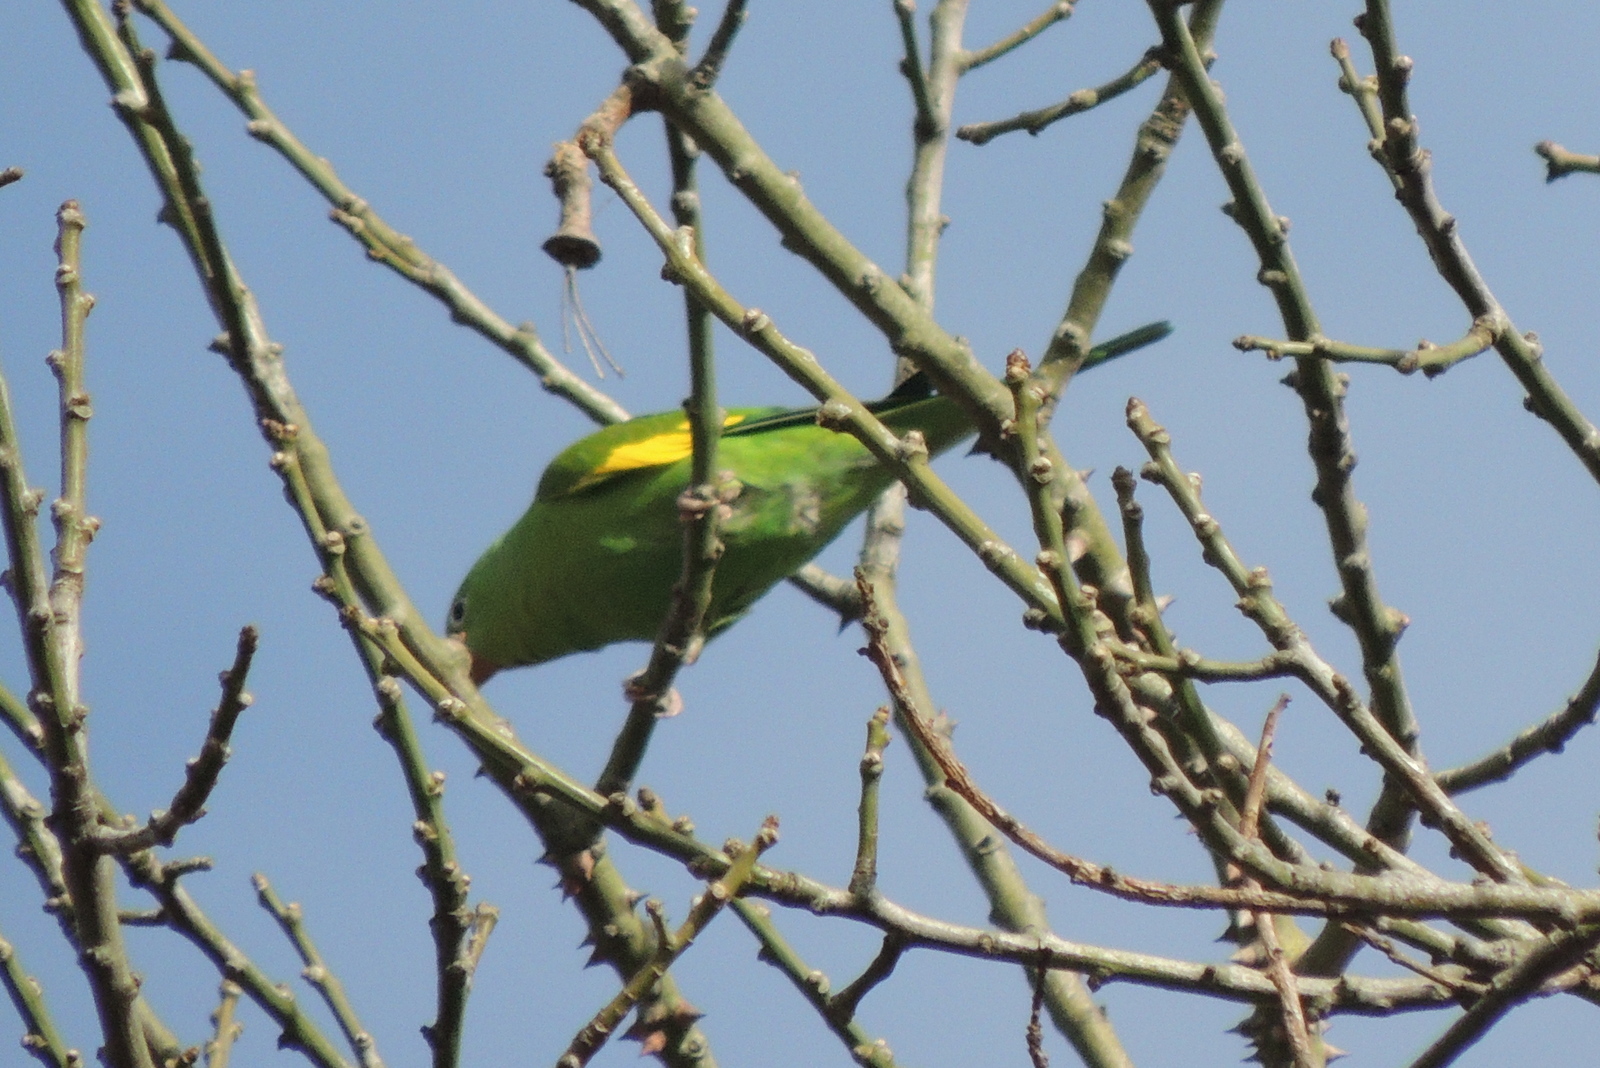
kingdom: Animalia
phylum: Chordata
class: Aves
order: Psittaciformes
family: Psittacidae
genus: Brotogeris
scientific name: Brotogeris chiriri
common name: Yellow-chevroned parakeet
